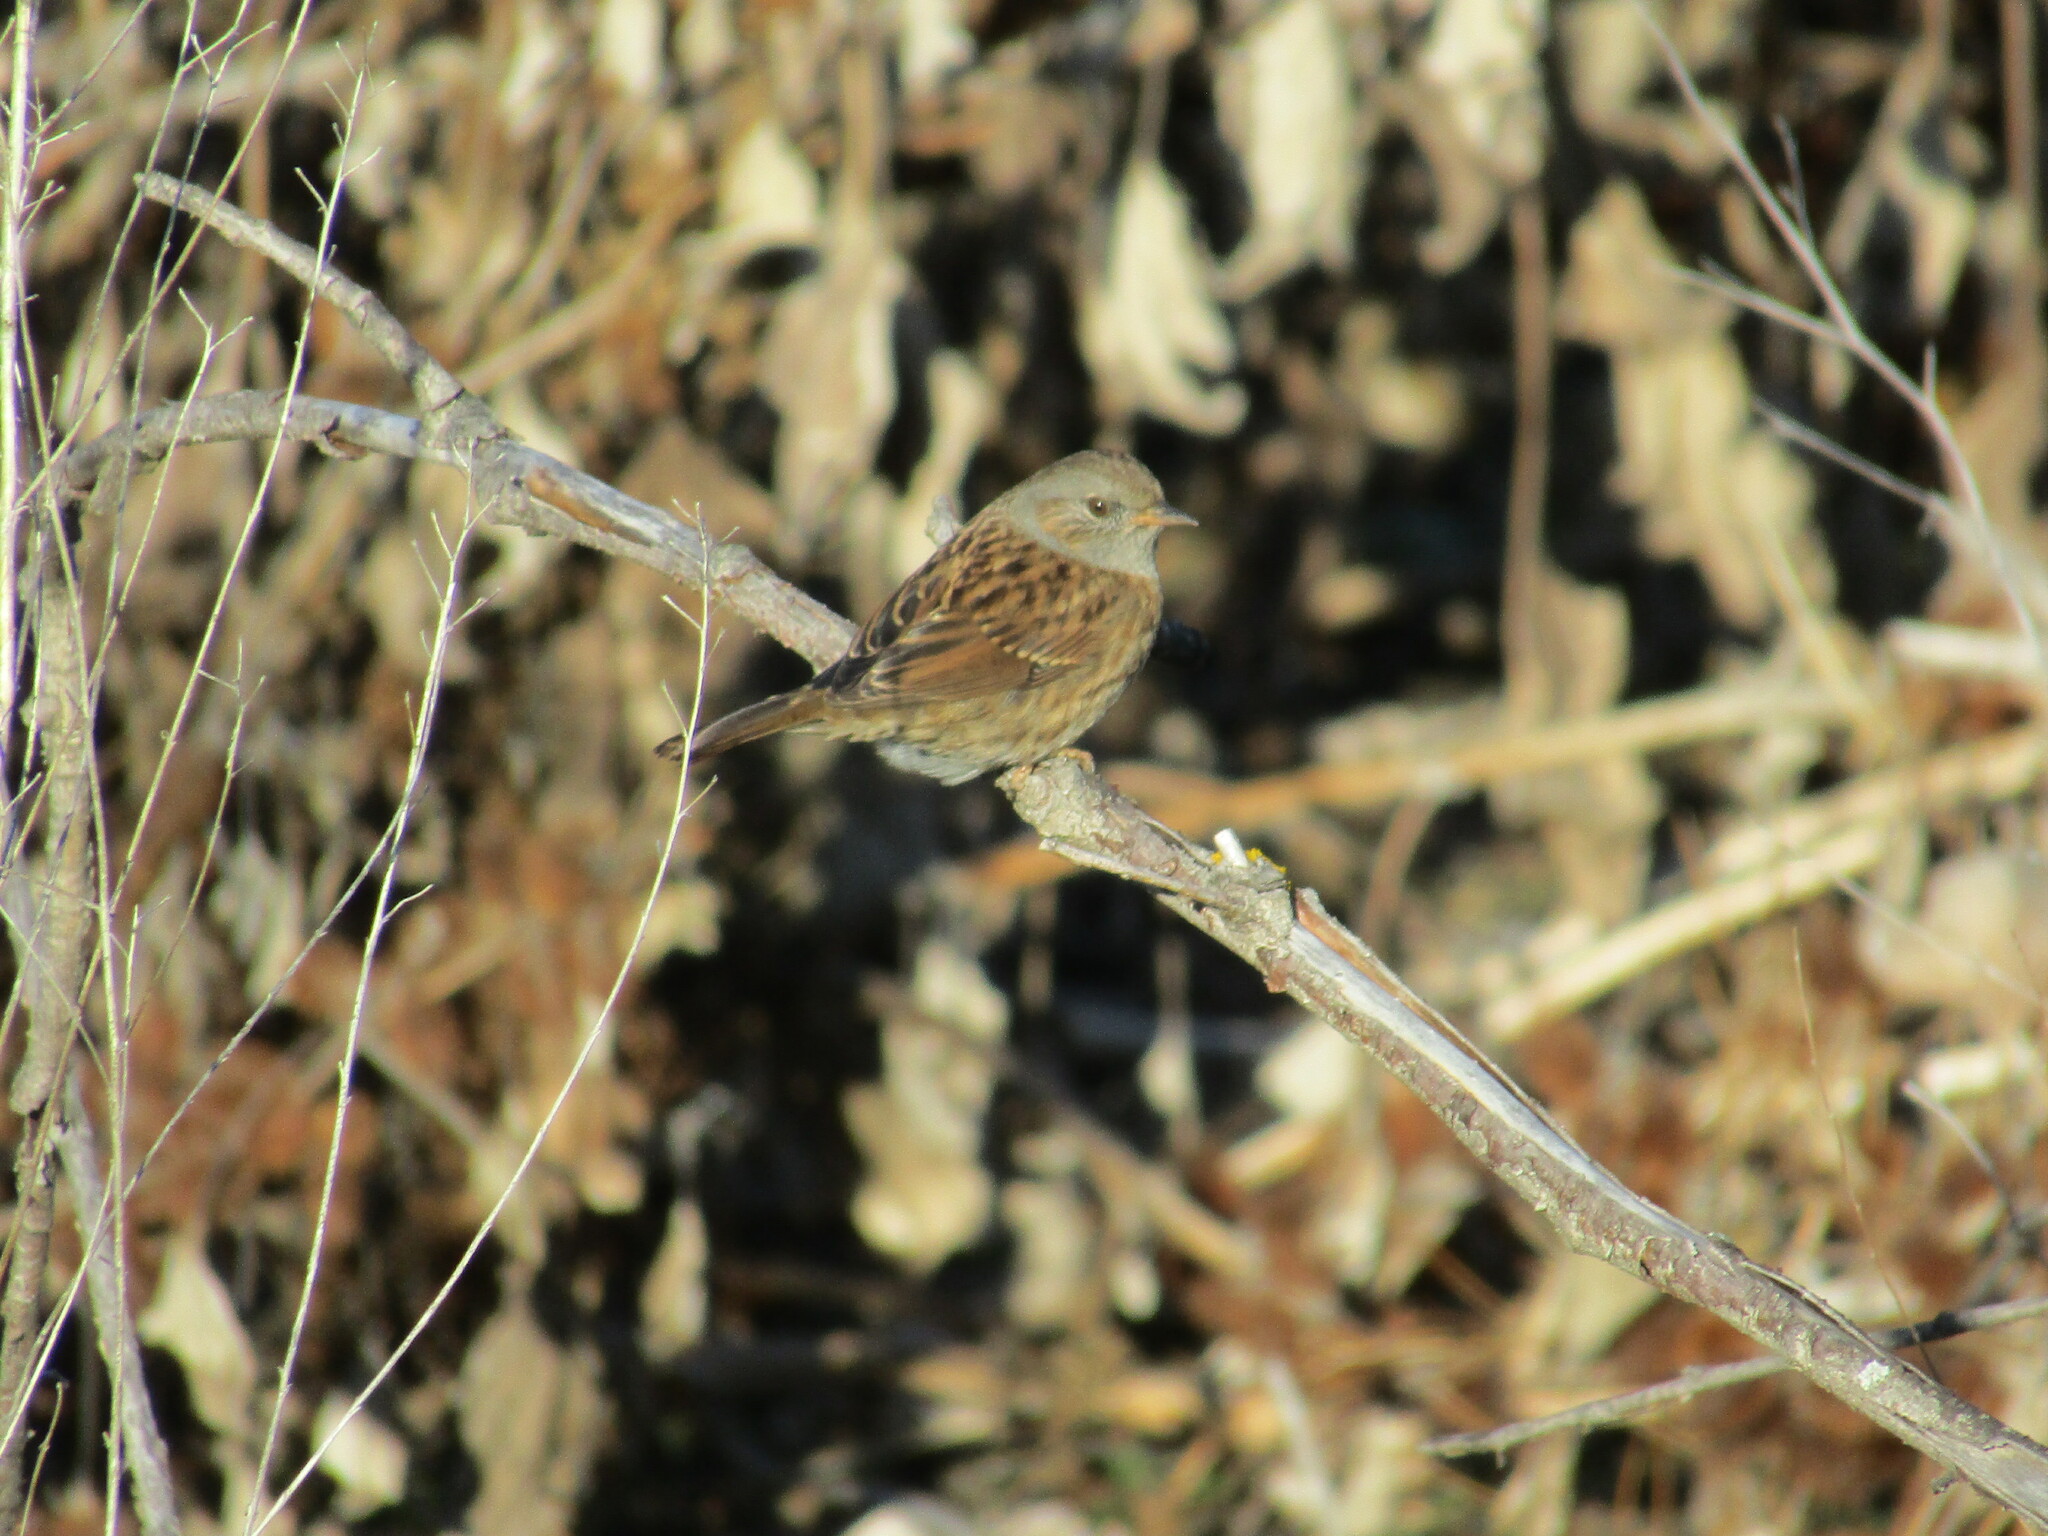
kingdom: Animalia
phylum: Chordata
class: Aves
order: Passeriformes
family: Prunellidae
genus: Prunella
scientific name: Prunella modularis
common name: Dunnock
